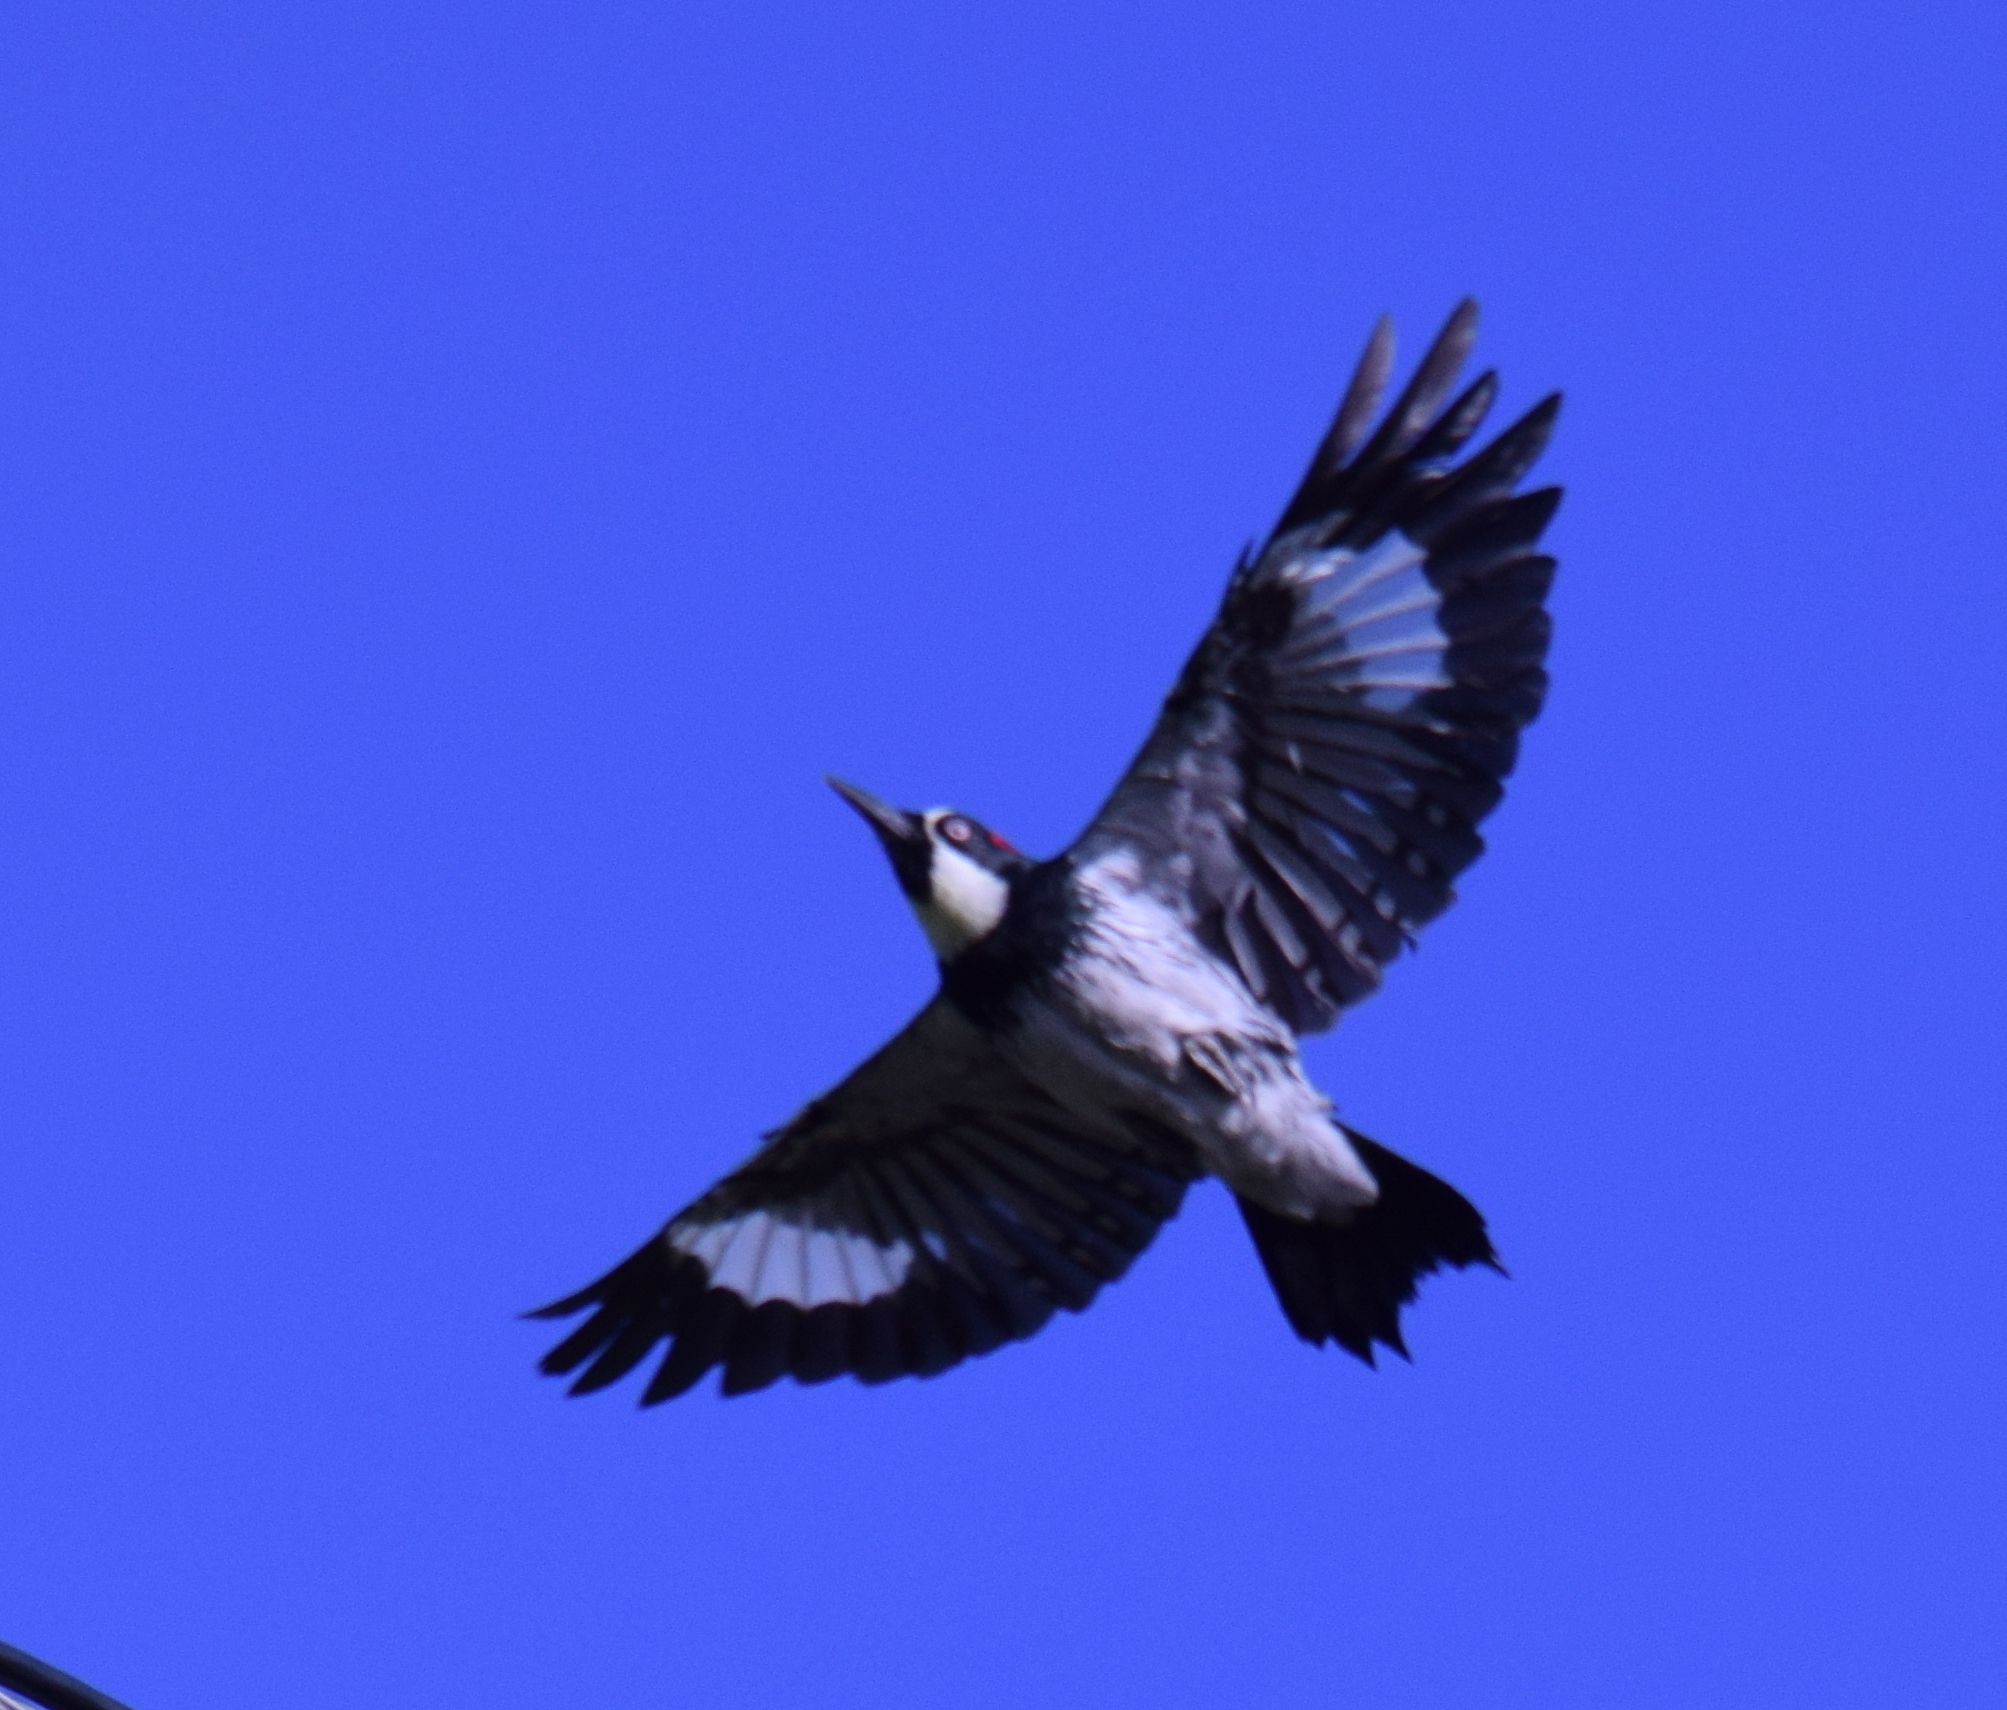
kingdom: Animalia
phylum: Chordata
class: Aves
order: Piciformes
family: Picidae
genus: Melanerpes
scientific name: Melanerpes formicivorus
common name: Acorn woodpecker
